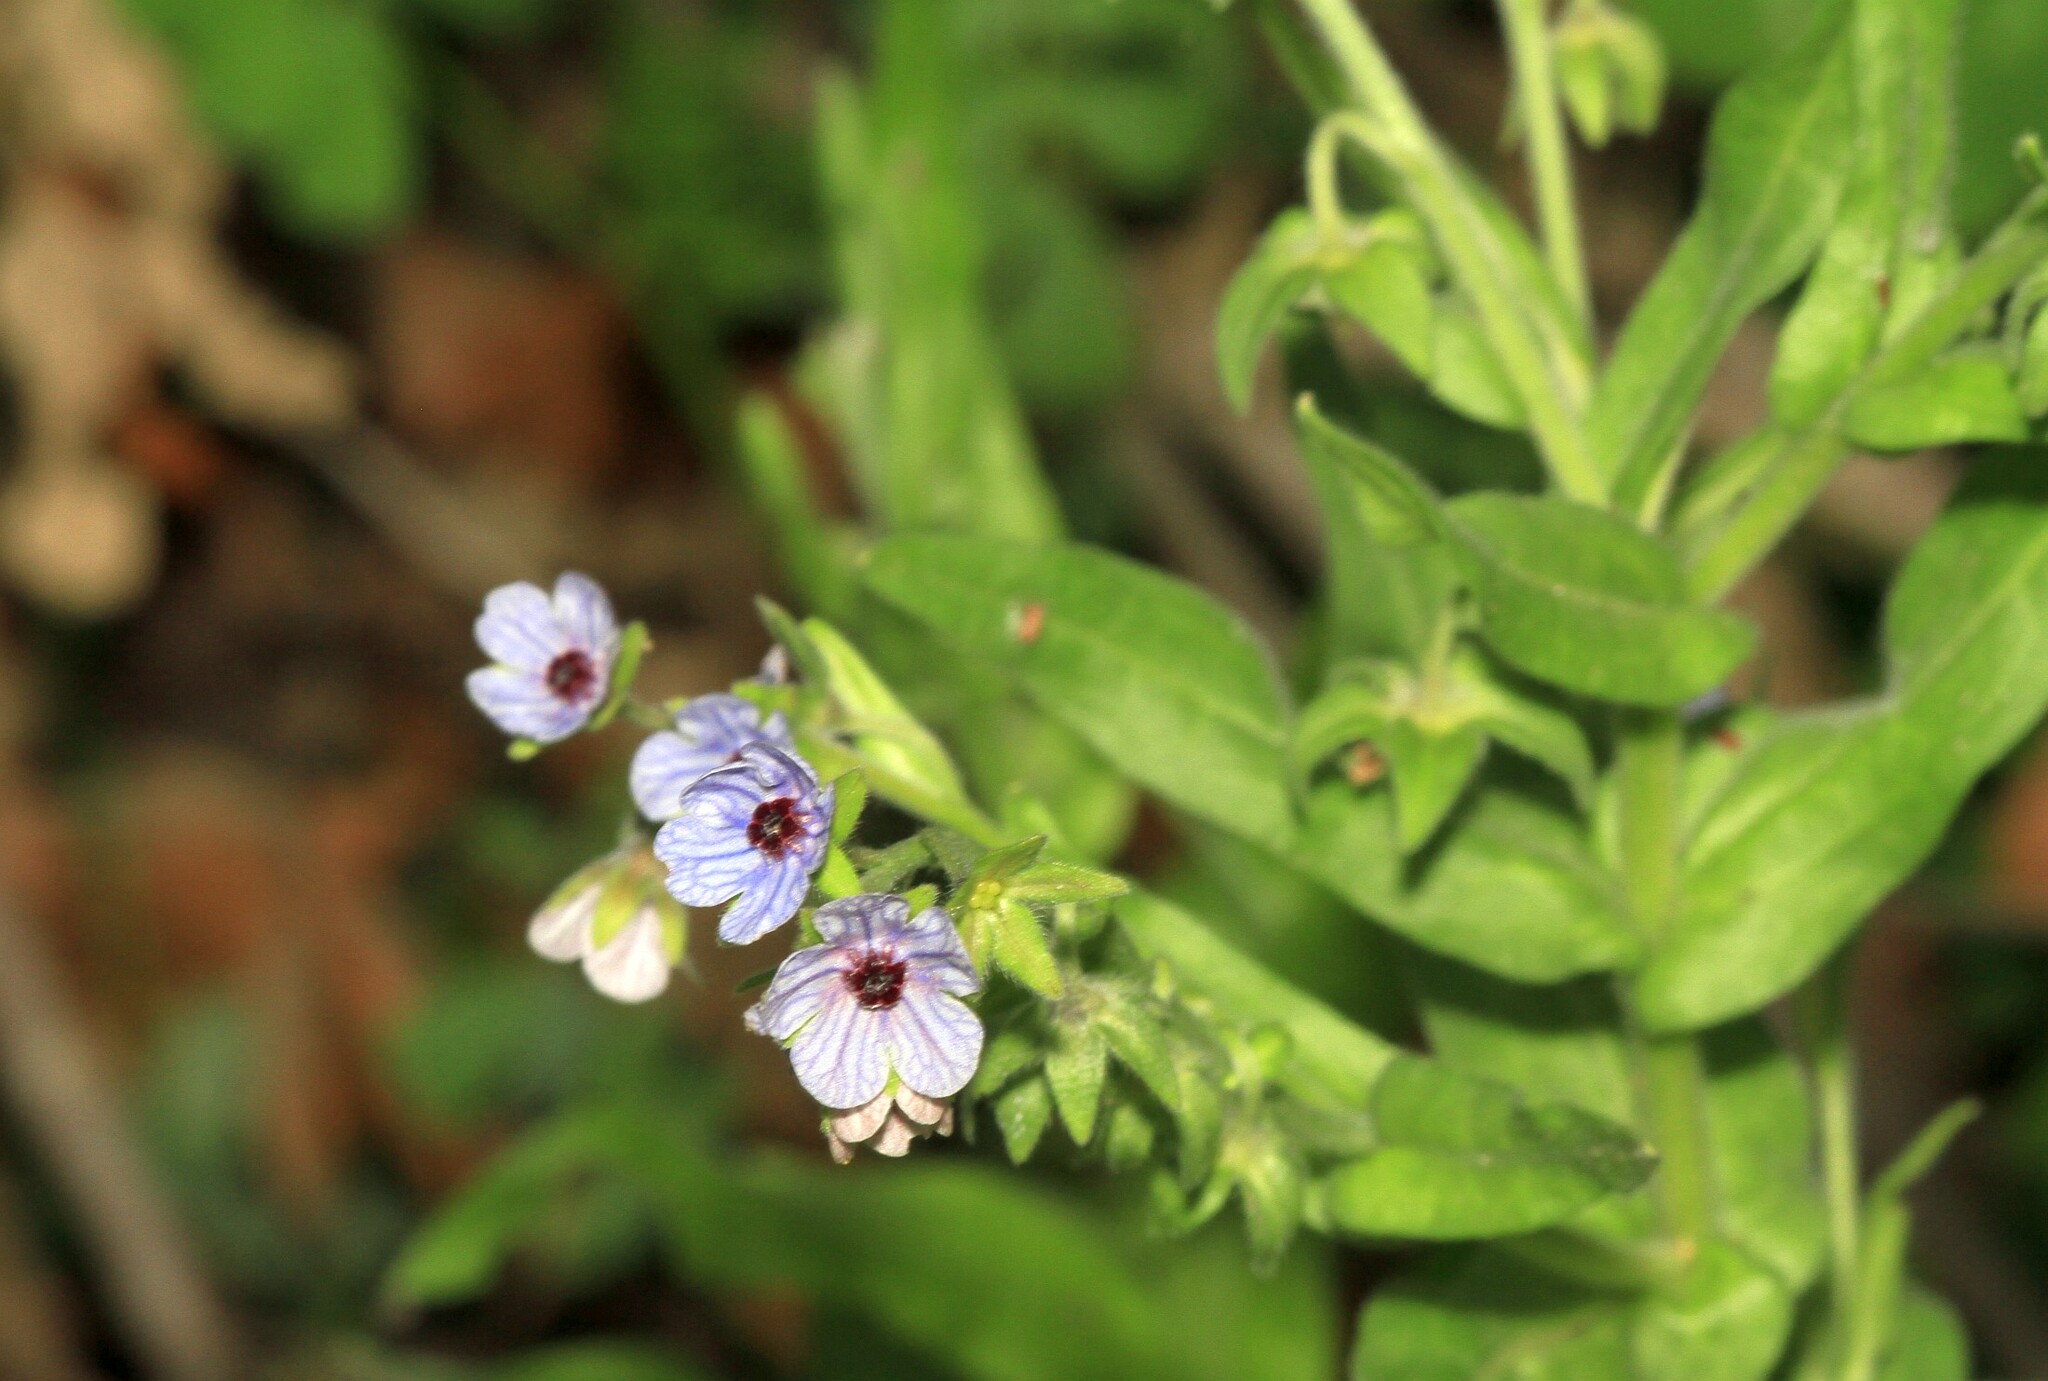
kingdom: Plantae
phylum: Tracheophyta
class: Magnoliopsida
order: Boraginales
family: Boraginaceae
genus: Cynoglossum
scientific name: Cynoglossum creticum
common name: Blue hound's tongue
